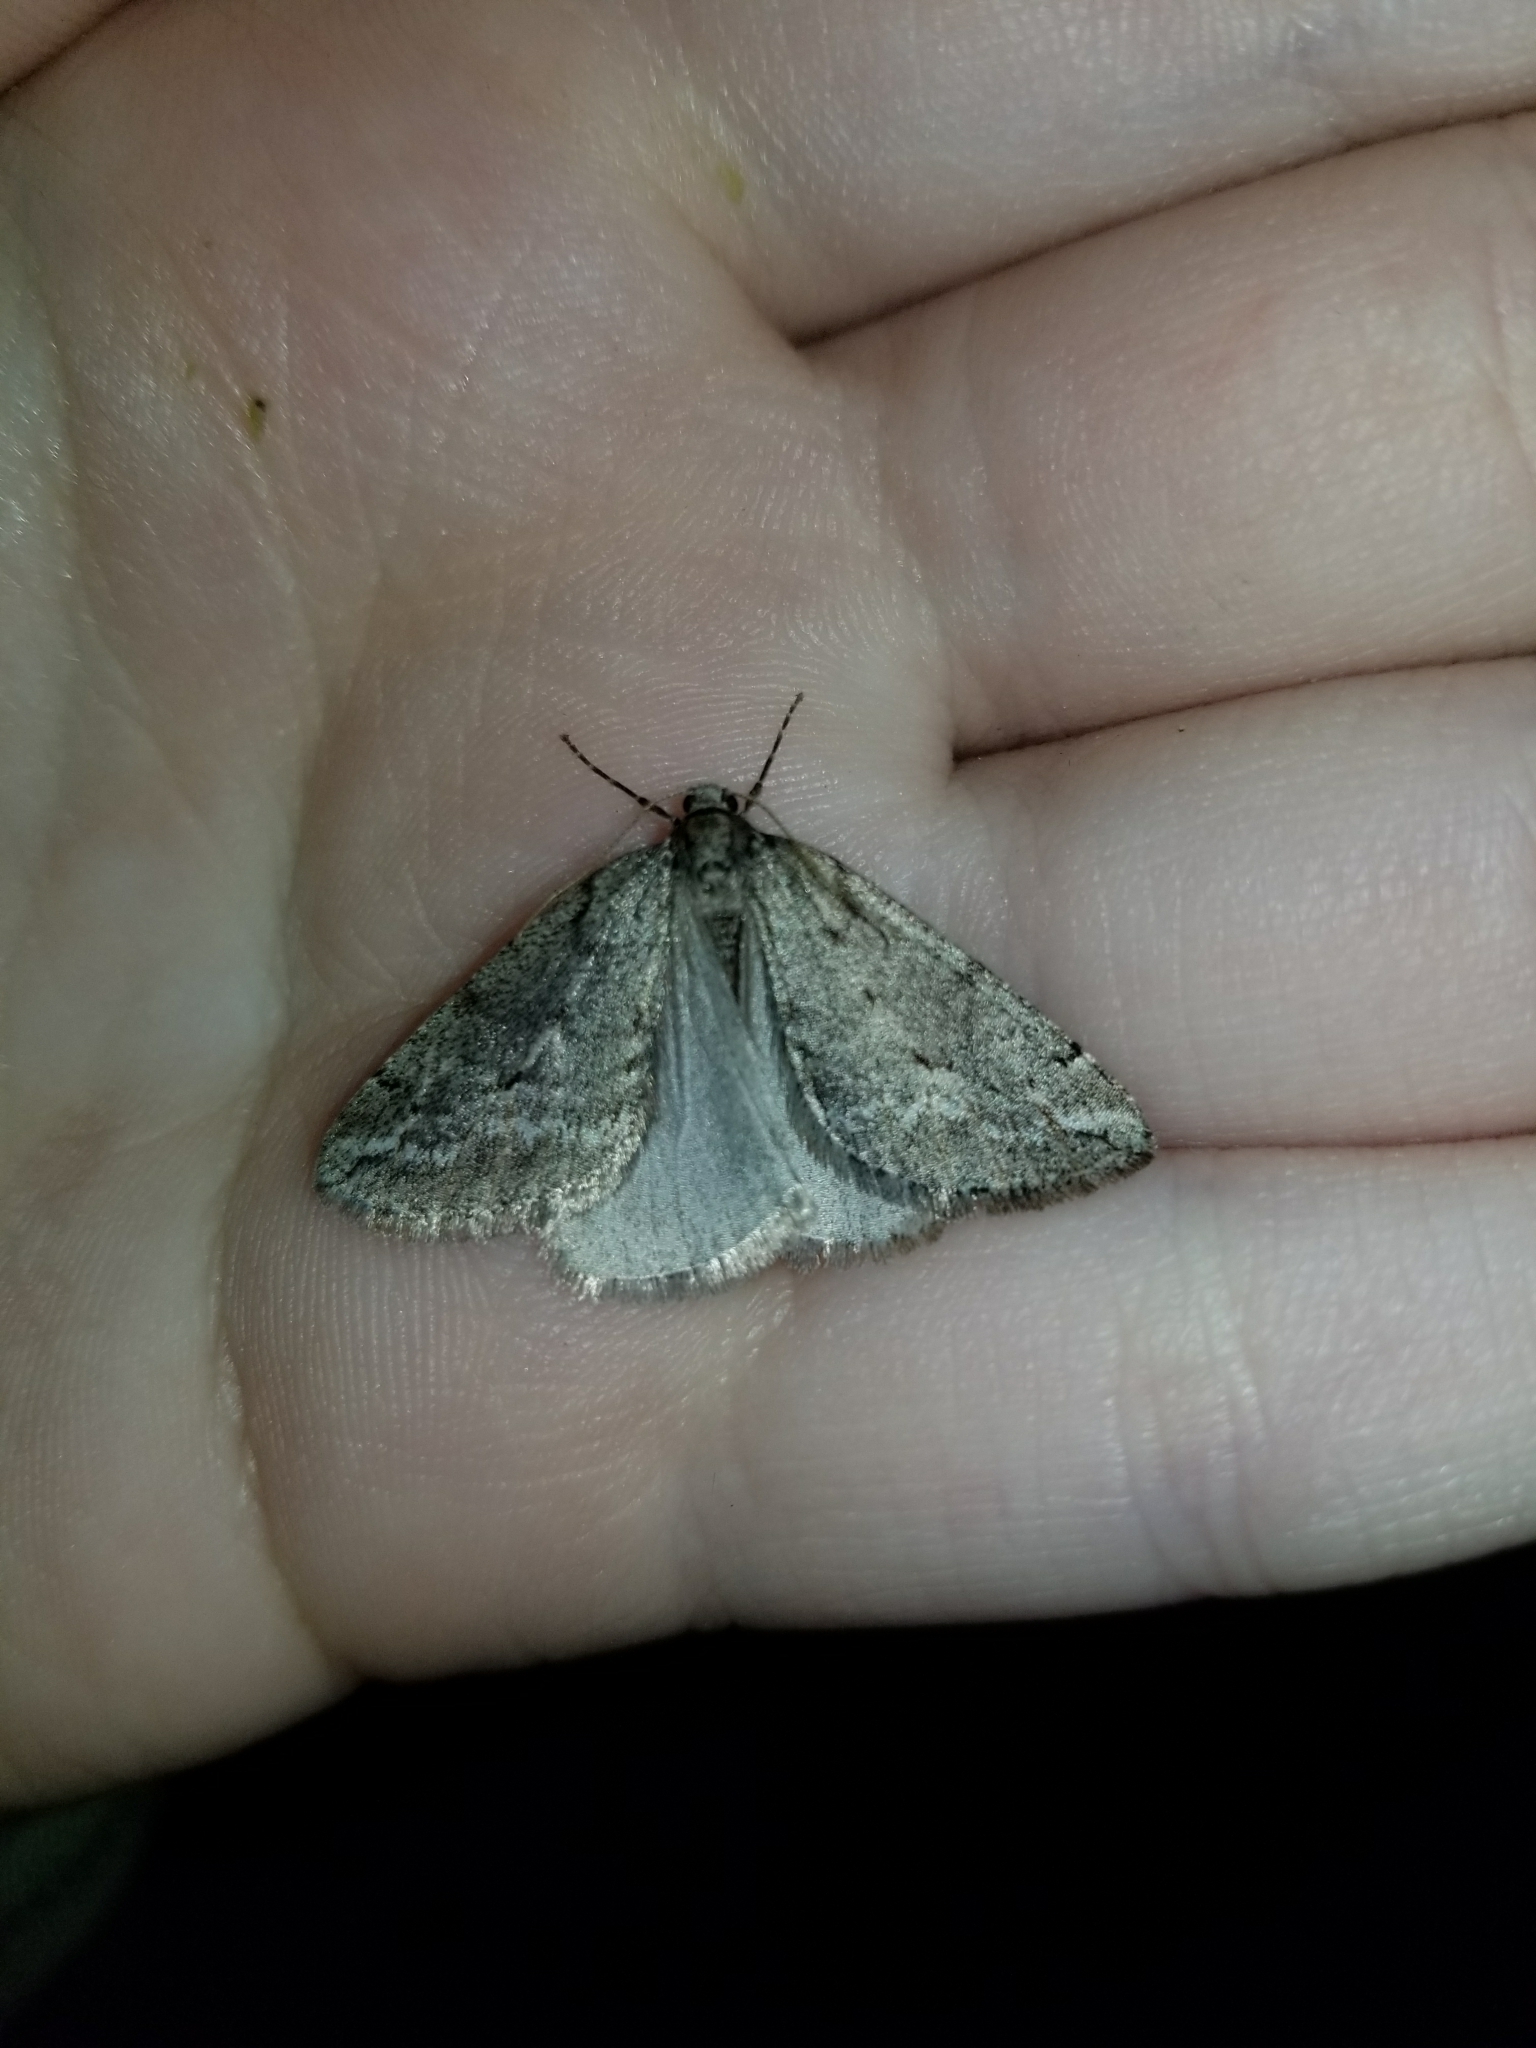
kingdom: Animalia
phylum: Arthropoda
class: Insecta
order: Lepidoptera
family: Geometridae
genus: Paleacrita
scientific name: Paleacrita vernata
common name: Spring cankerworm
